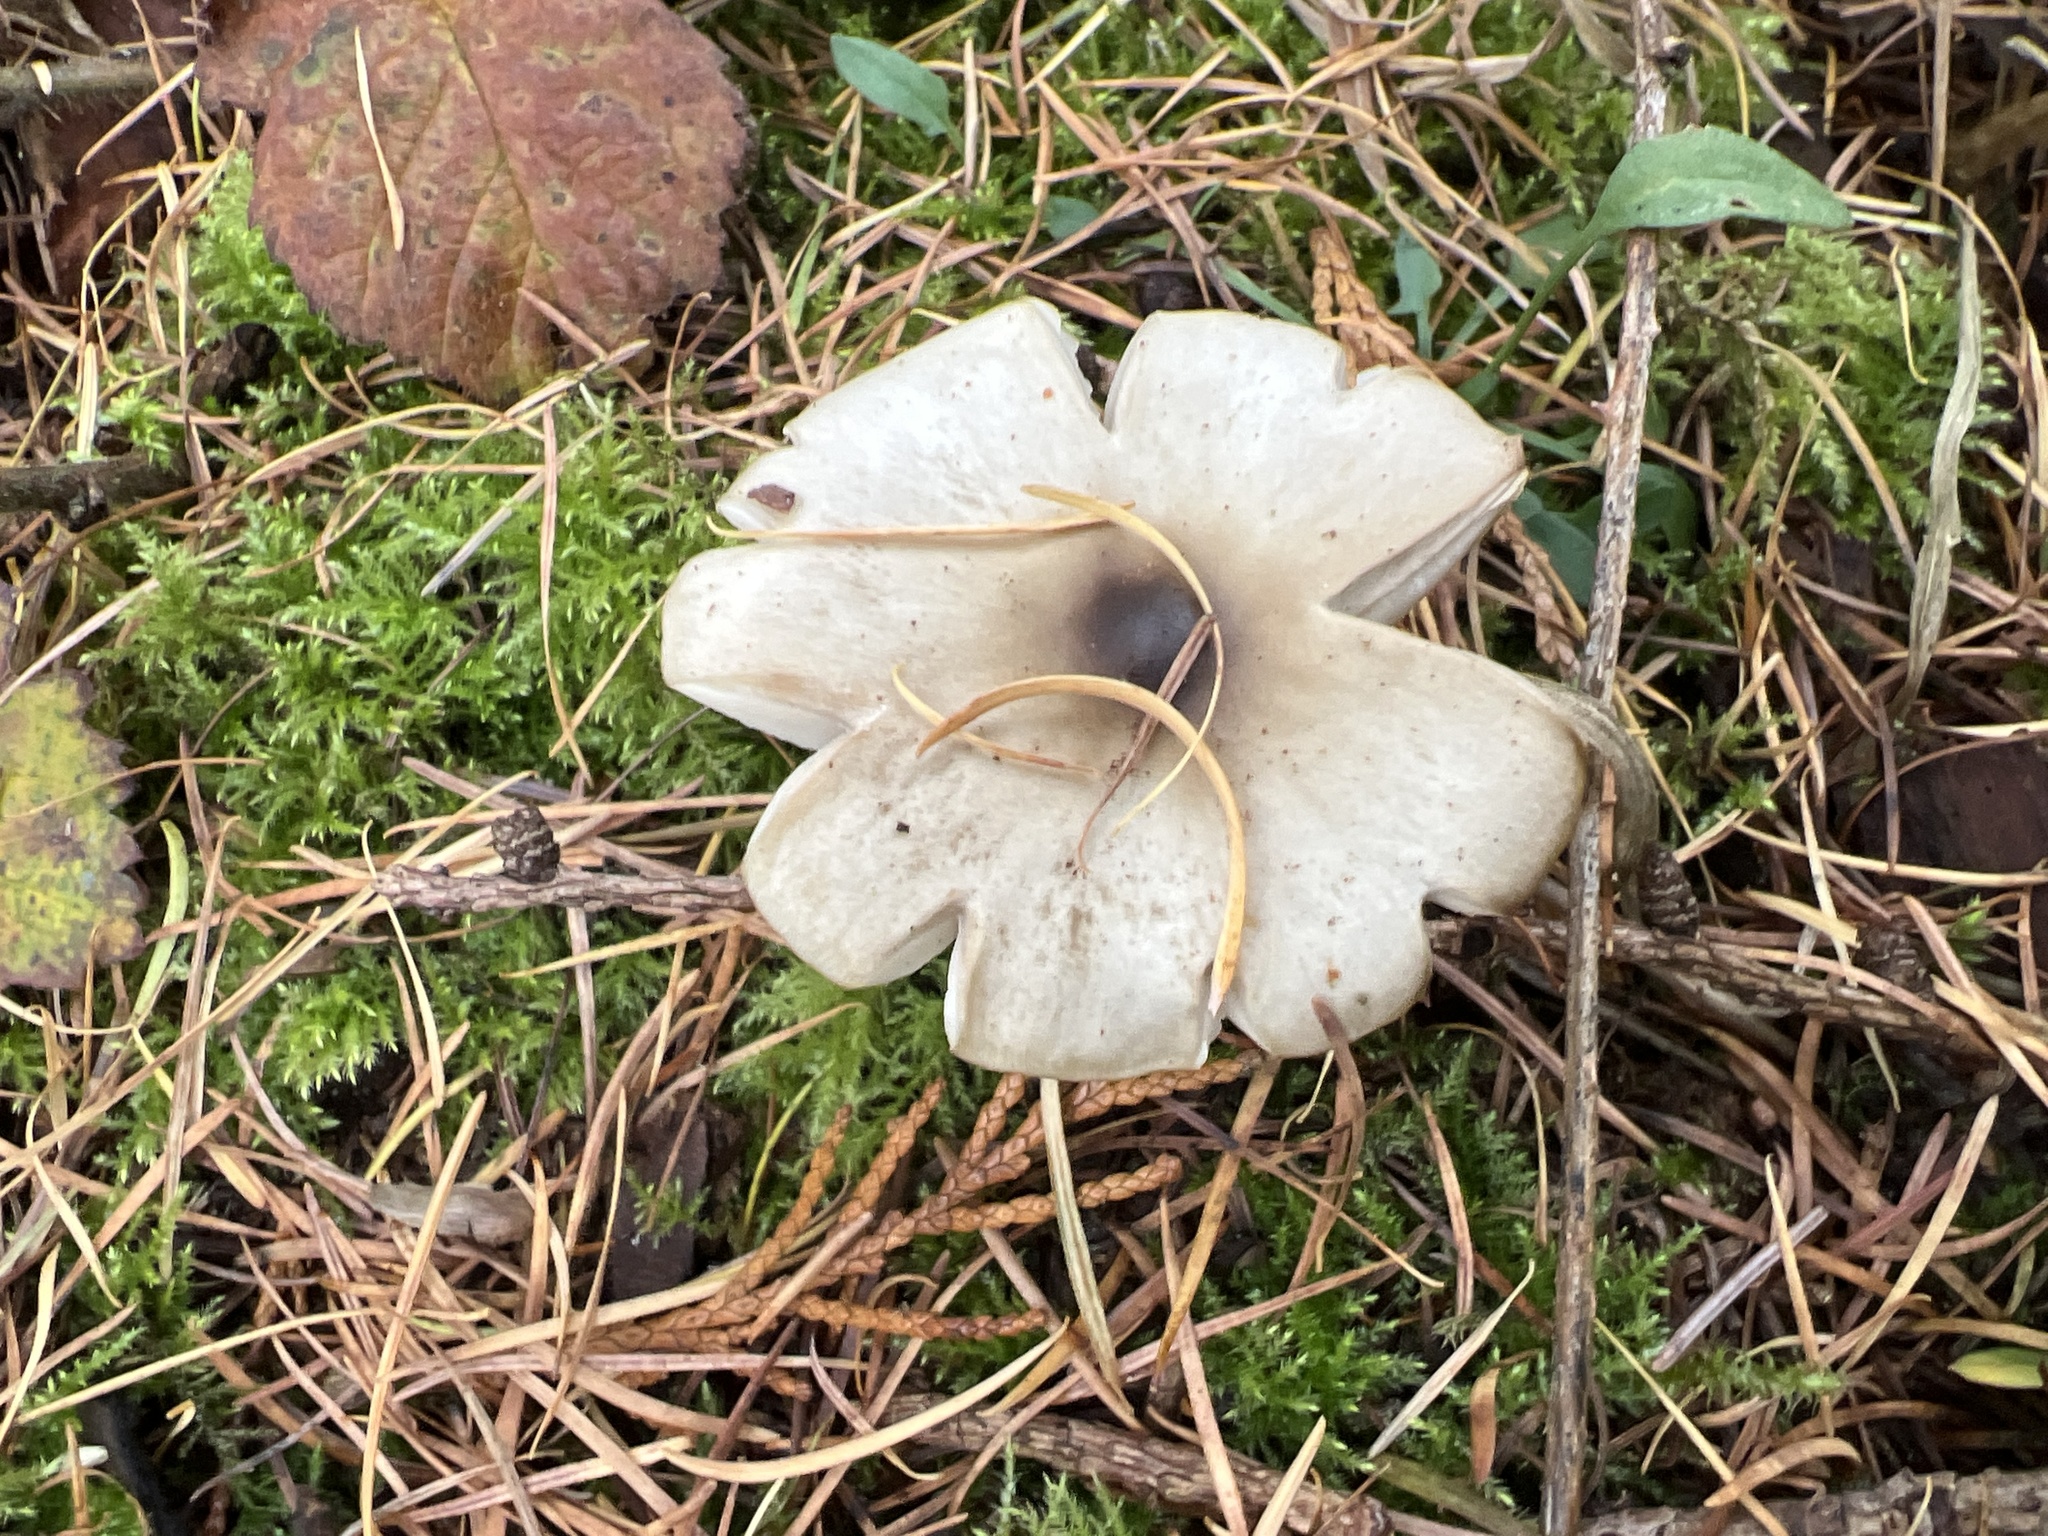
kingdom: Fungi
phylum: Basidiomycota
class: Agaricomycetes
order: Agaricales
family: Omphalotaceae
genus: Rhodocollybia
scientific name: Rhodocollybia butyracea
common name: Butter cap
